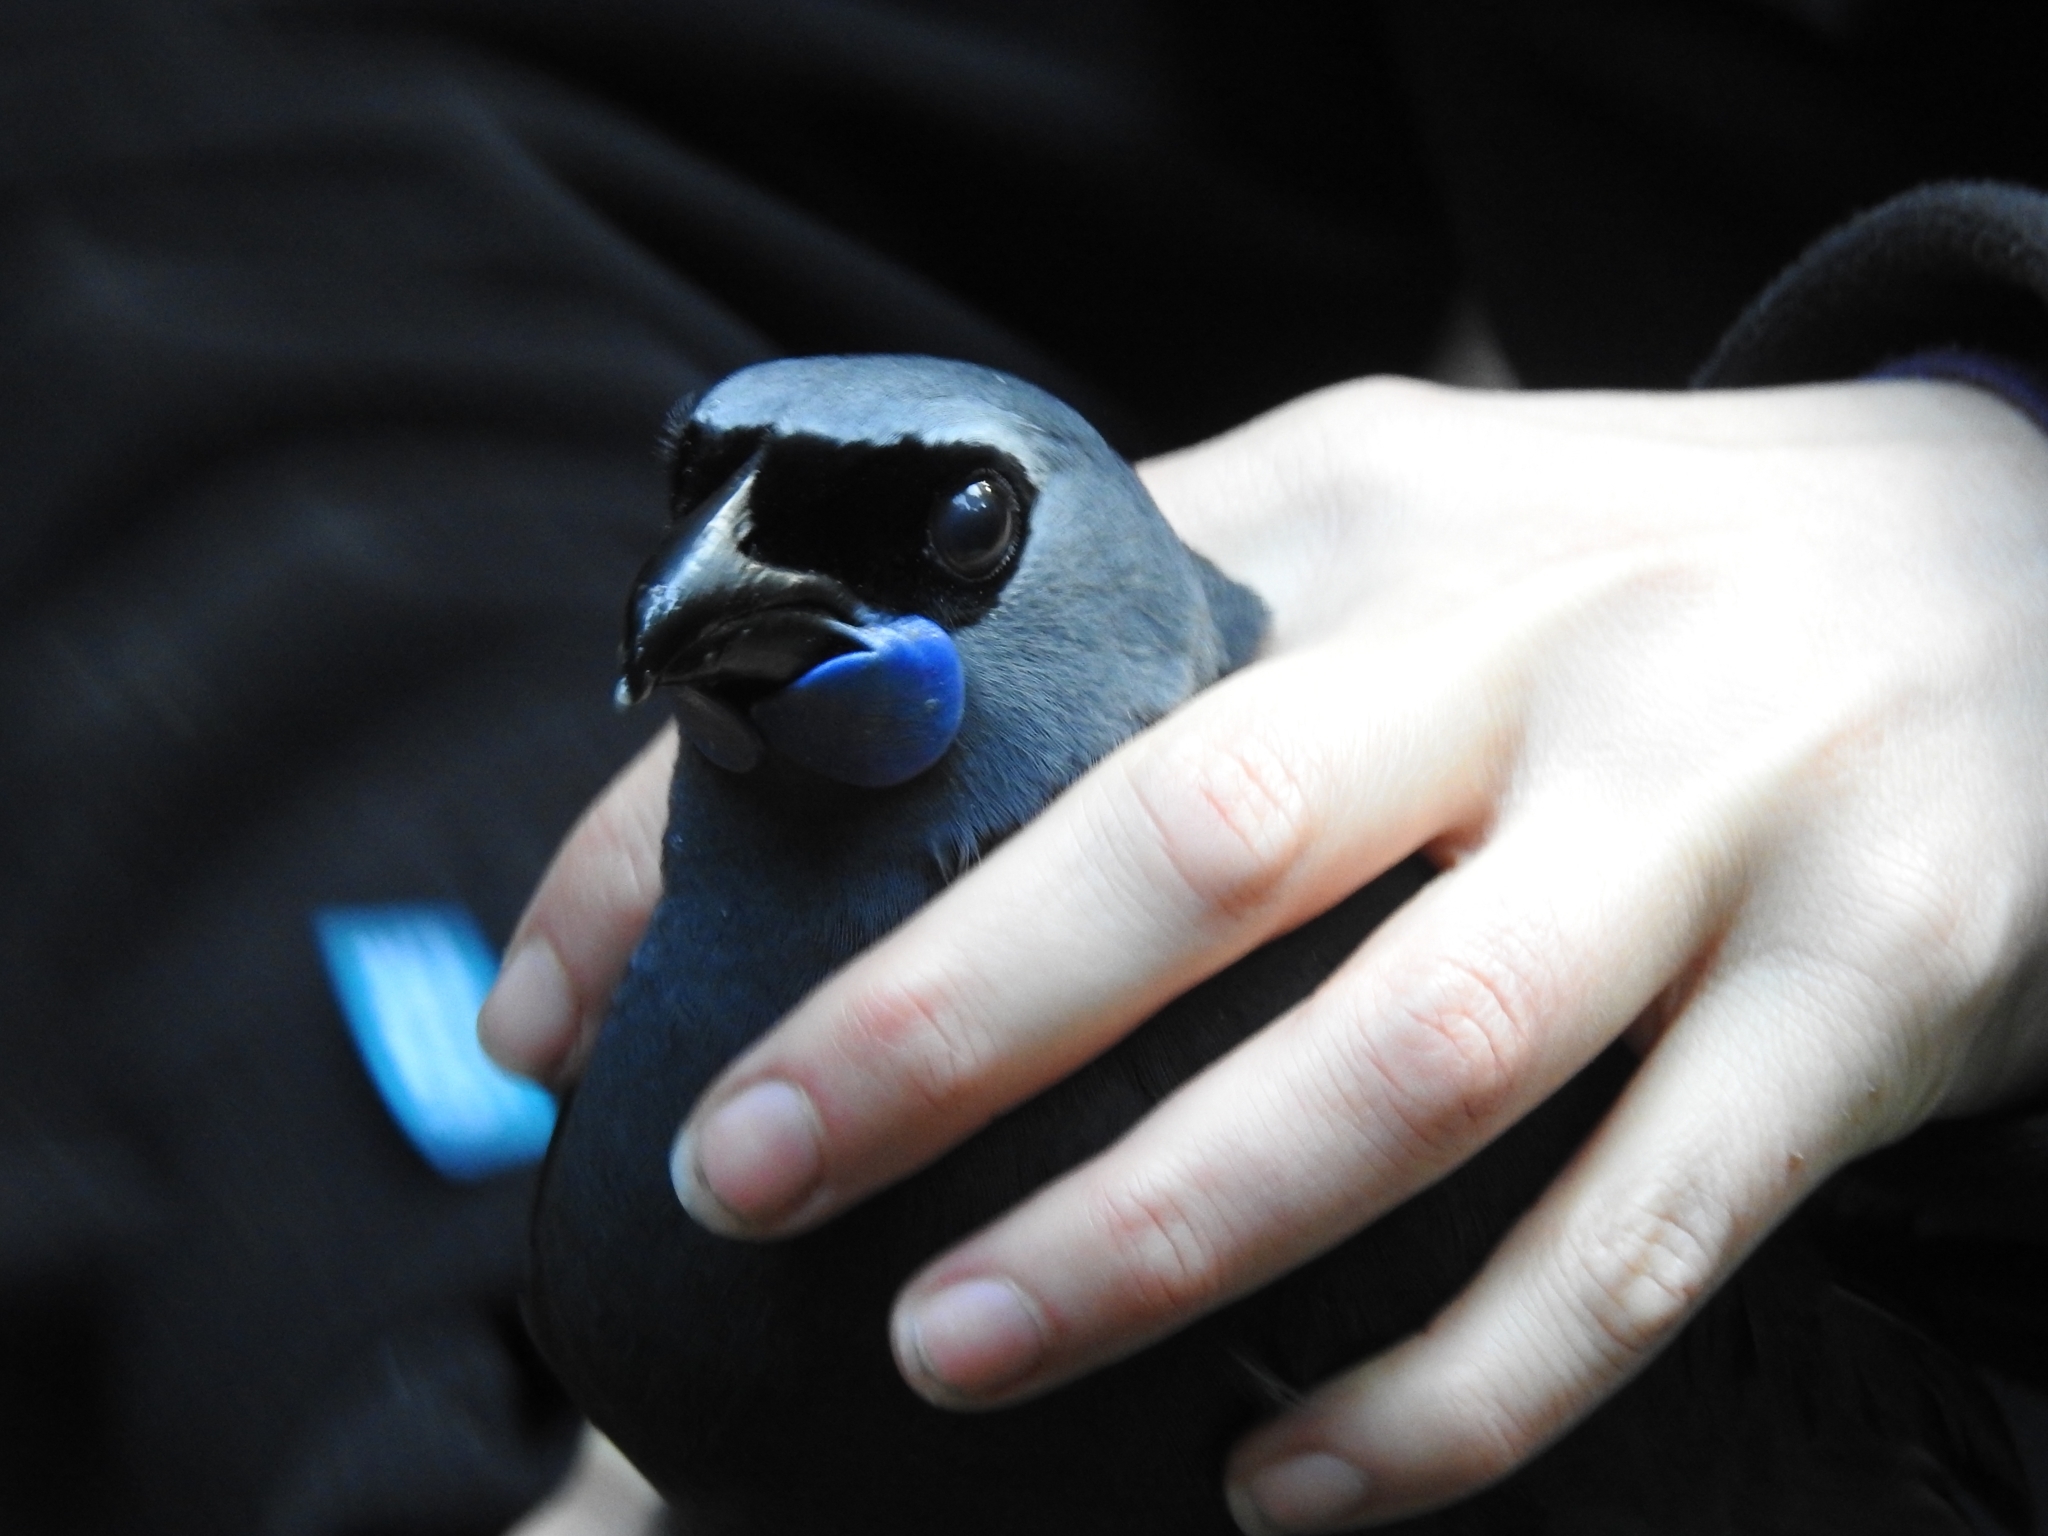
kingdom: Animalia
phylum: Chordata
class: Aves
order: Passeriformes
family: Callaeatidae
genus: Callaeas
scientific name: Callaeas cinereus
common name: South island kokako
